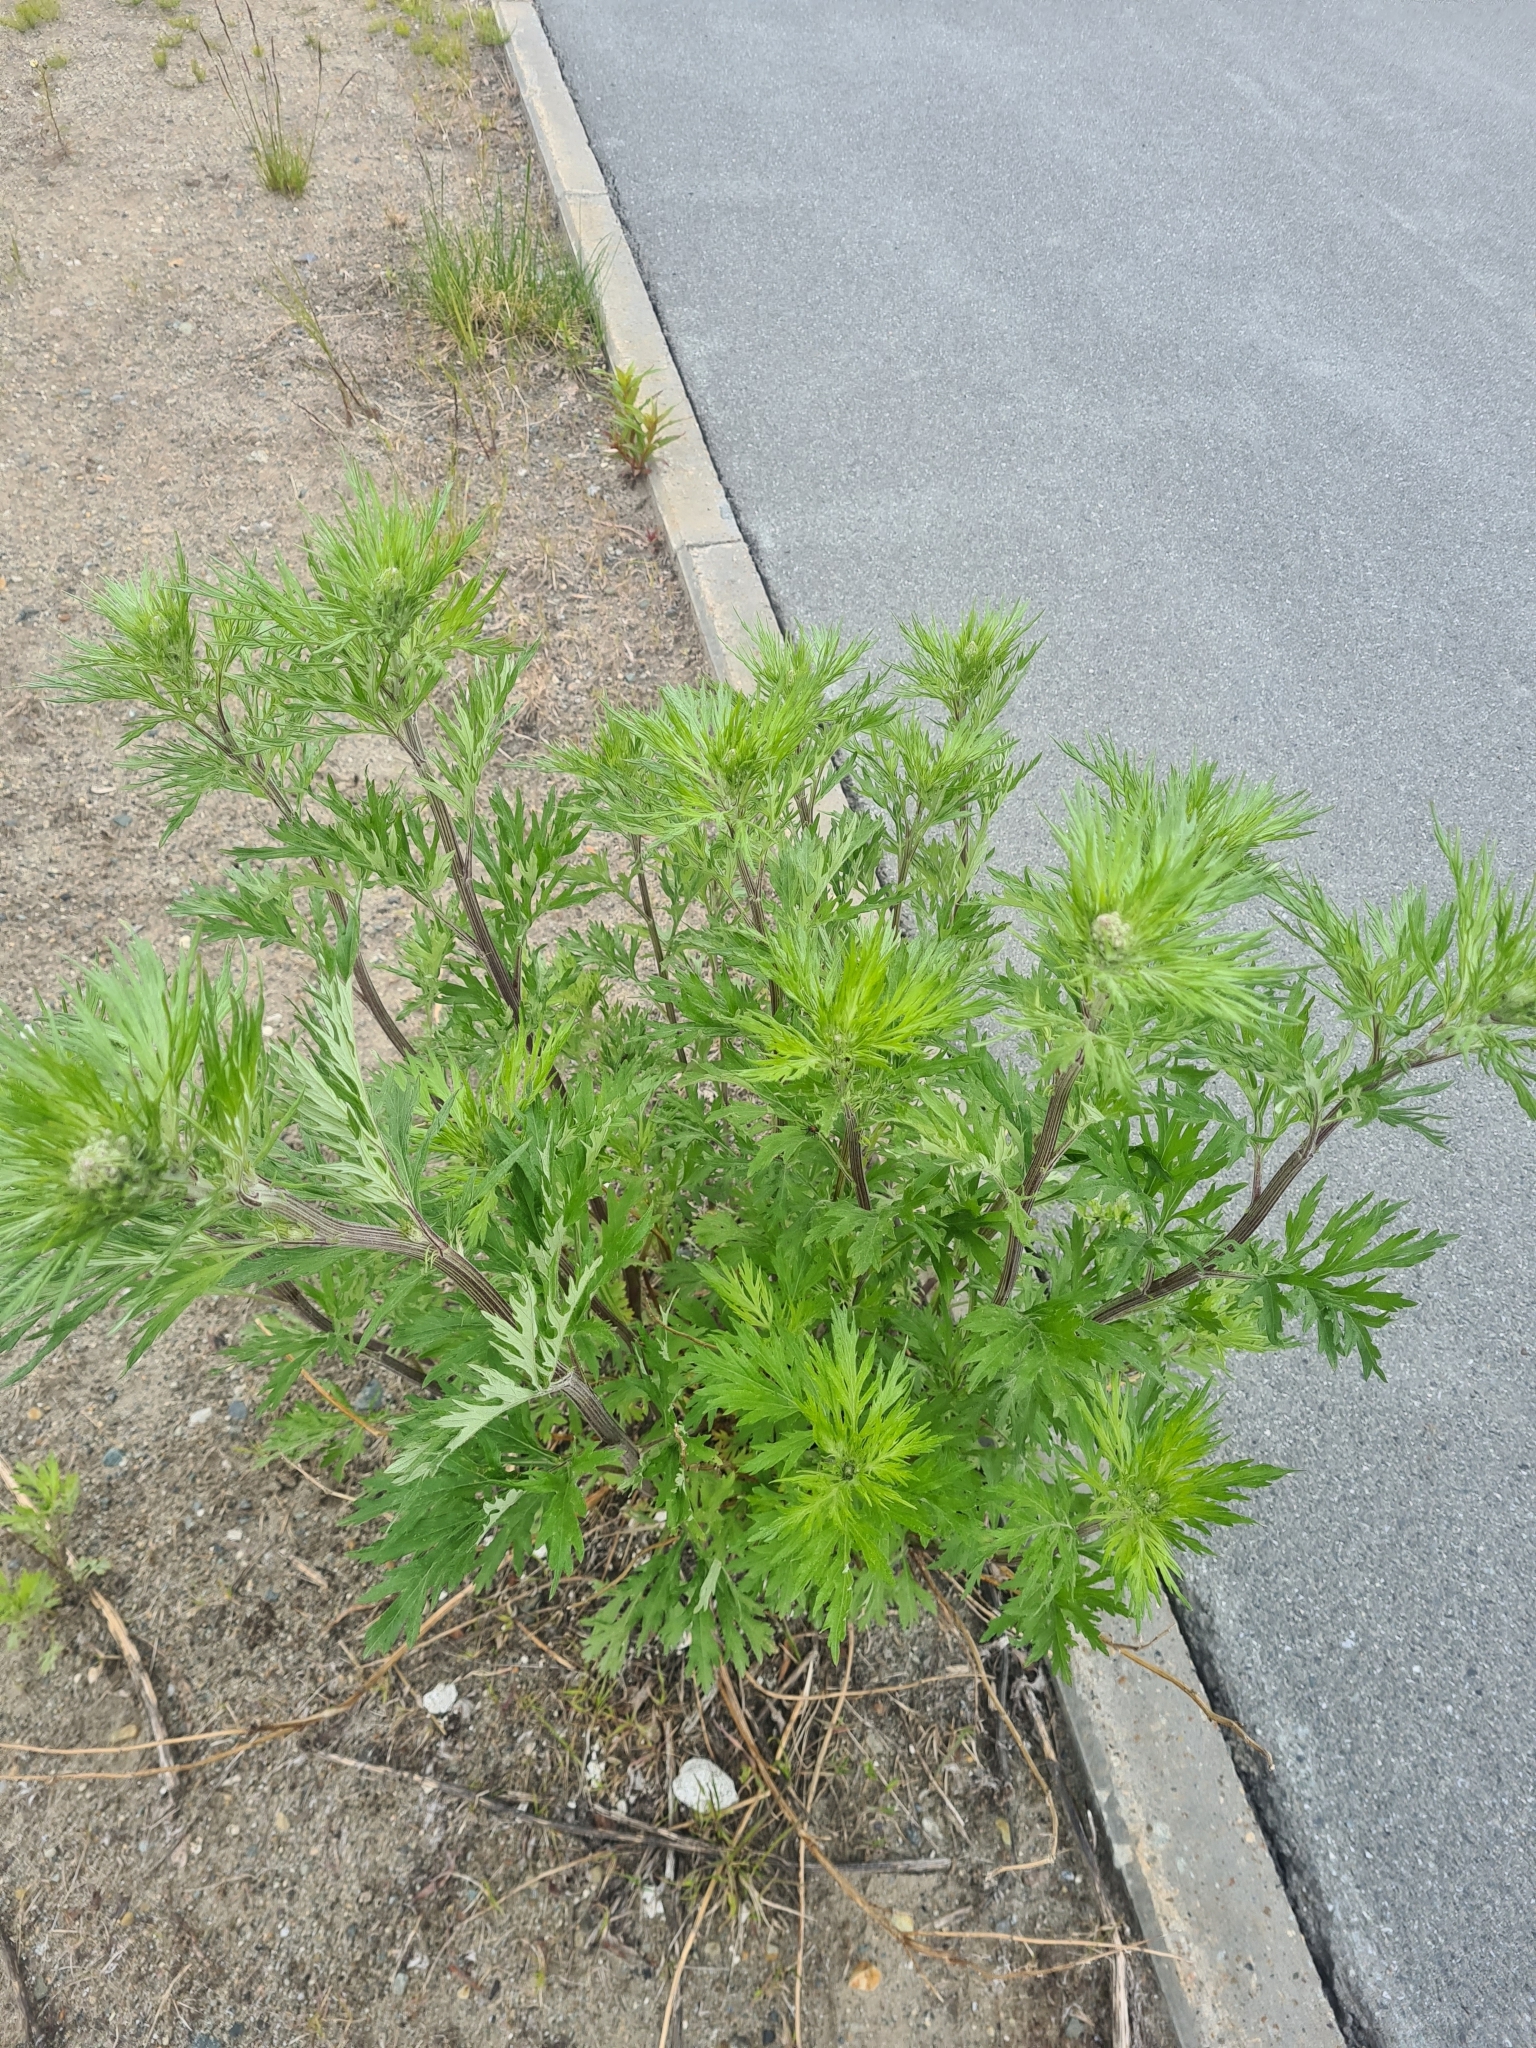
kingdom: Plantae
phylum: Tracheophyta
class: Magnoliopsida
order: Asterales
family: Asteraceae
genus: Artemisia
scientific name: Artemisia tilesii
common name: Aleutian mugwort
